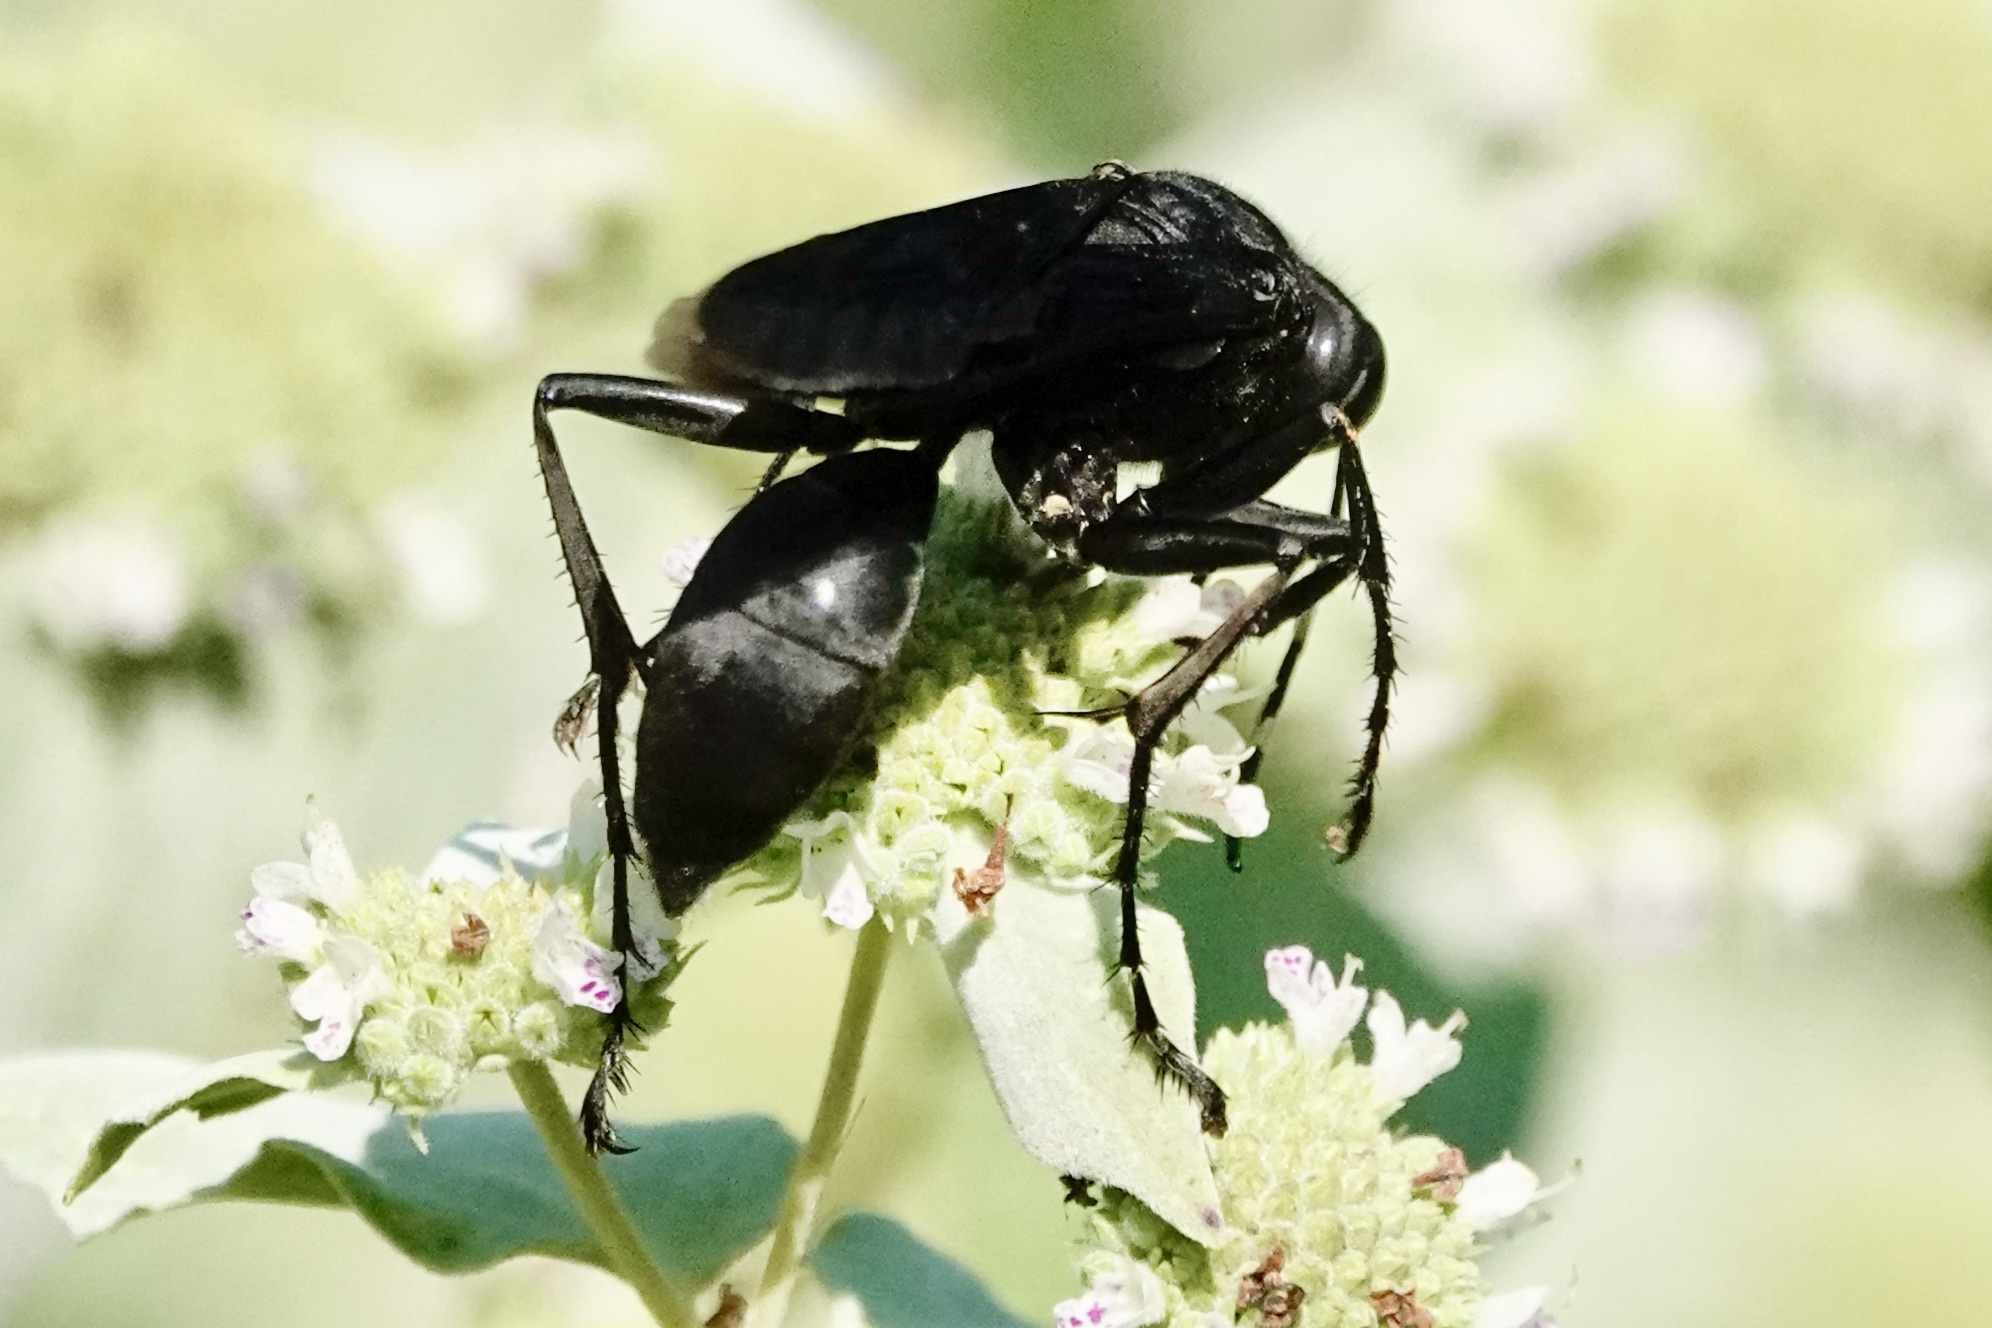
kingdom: Animalia
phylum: Arthropoda
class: Insecta
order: Hymenoptera
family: Sphecidae
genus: Sphex
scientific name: Sphex pensylvanicus
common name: Great black digger wasp
